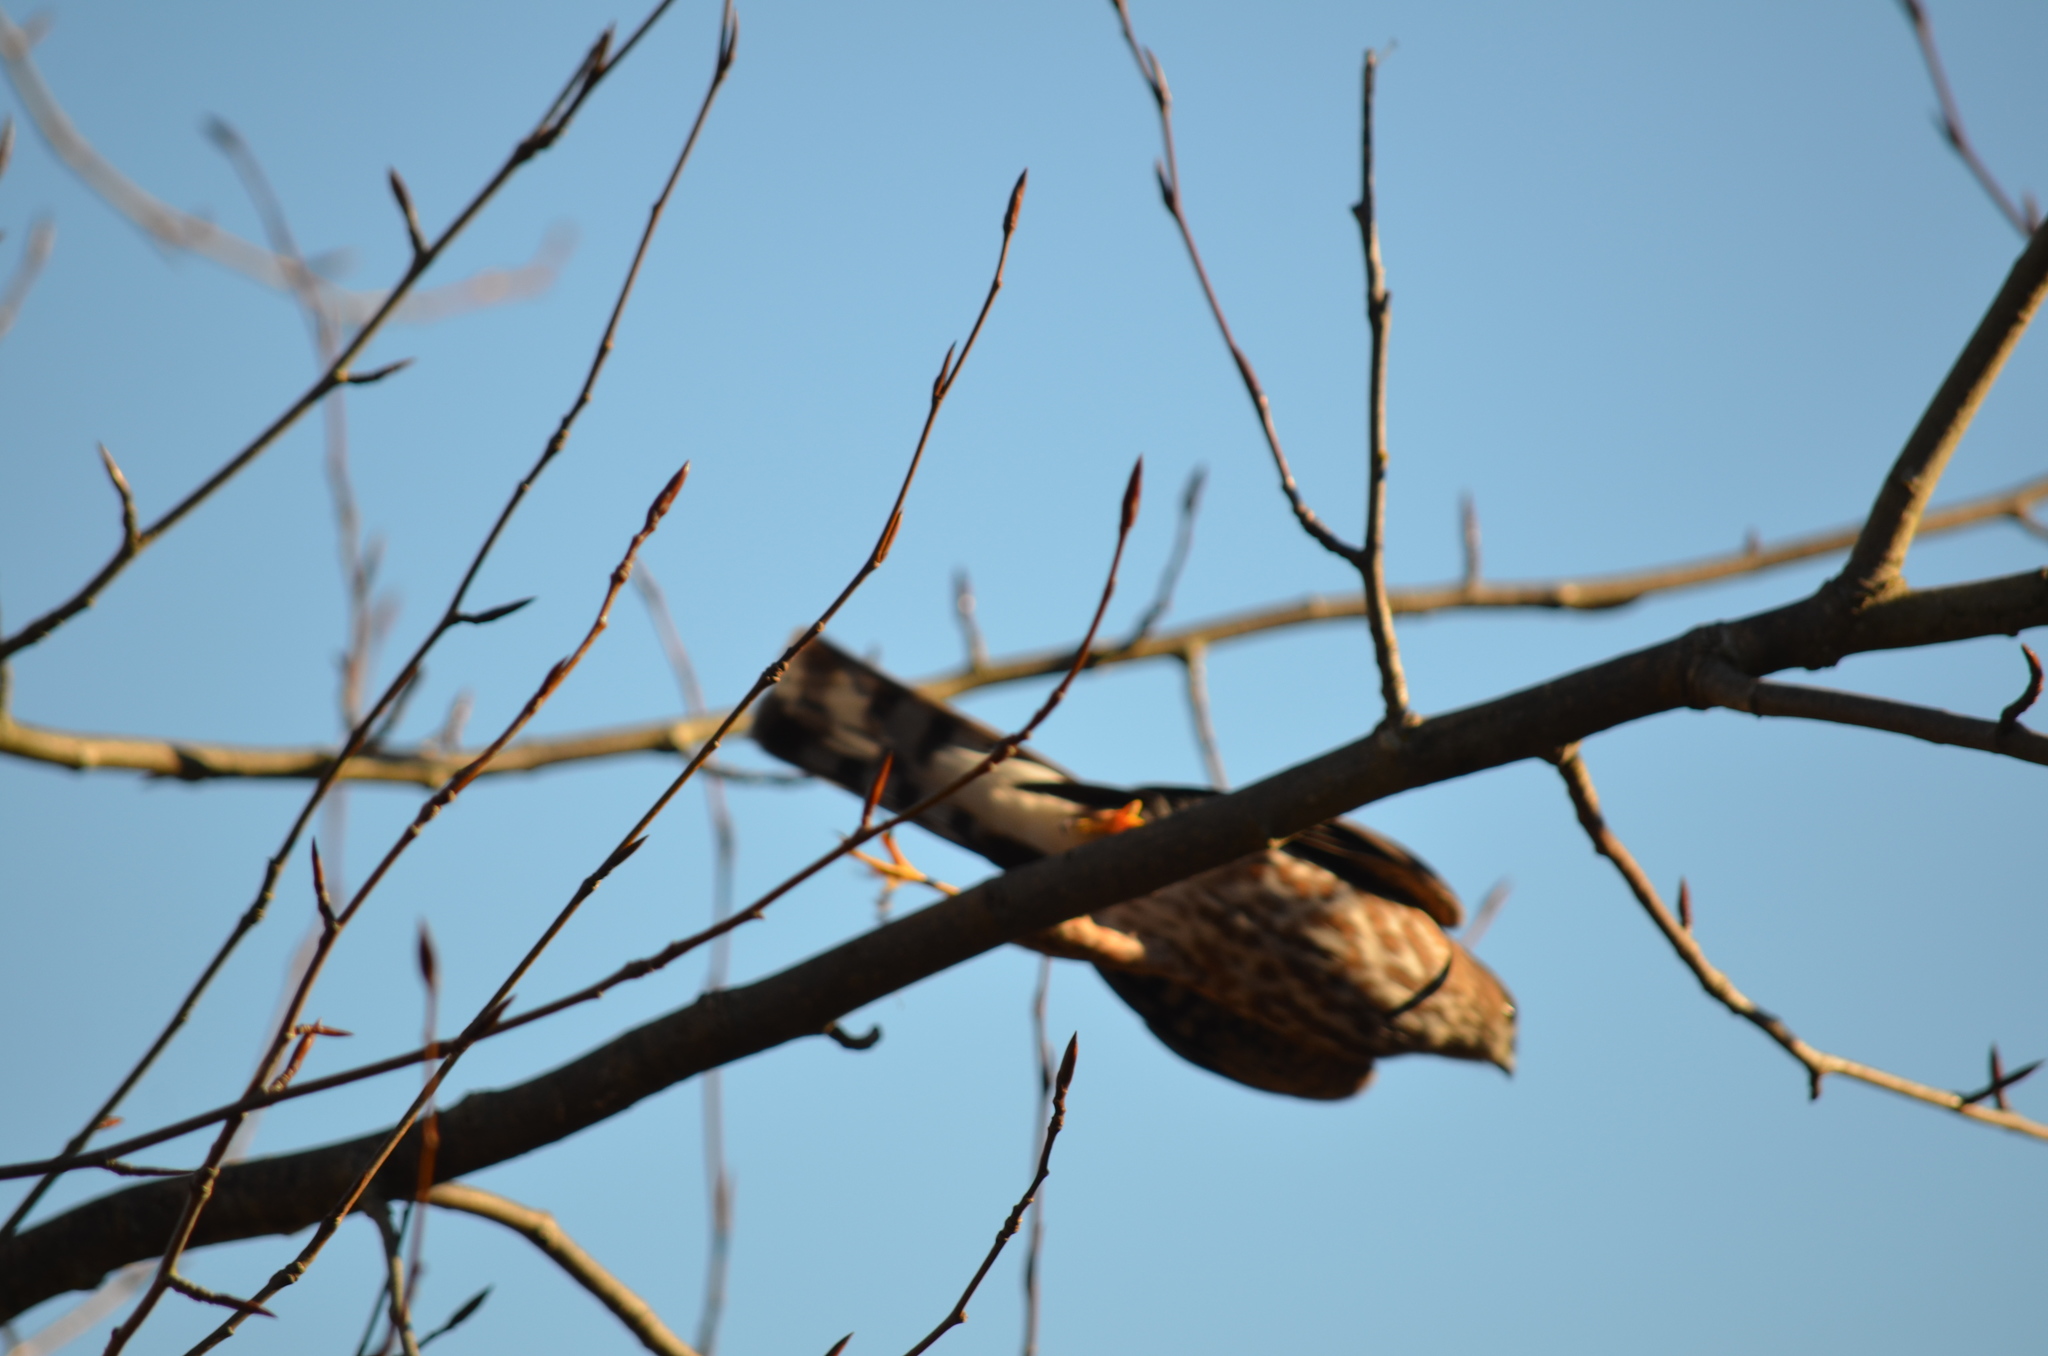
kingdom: Animalia
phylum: Chordata
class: Aves
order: Accipitriformes
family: Accipitridae
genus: Accipiter
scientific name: Accipiter striatus
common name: Sharp-shinned hawk
